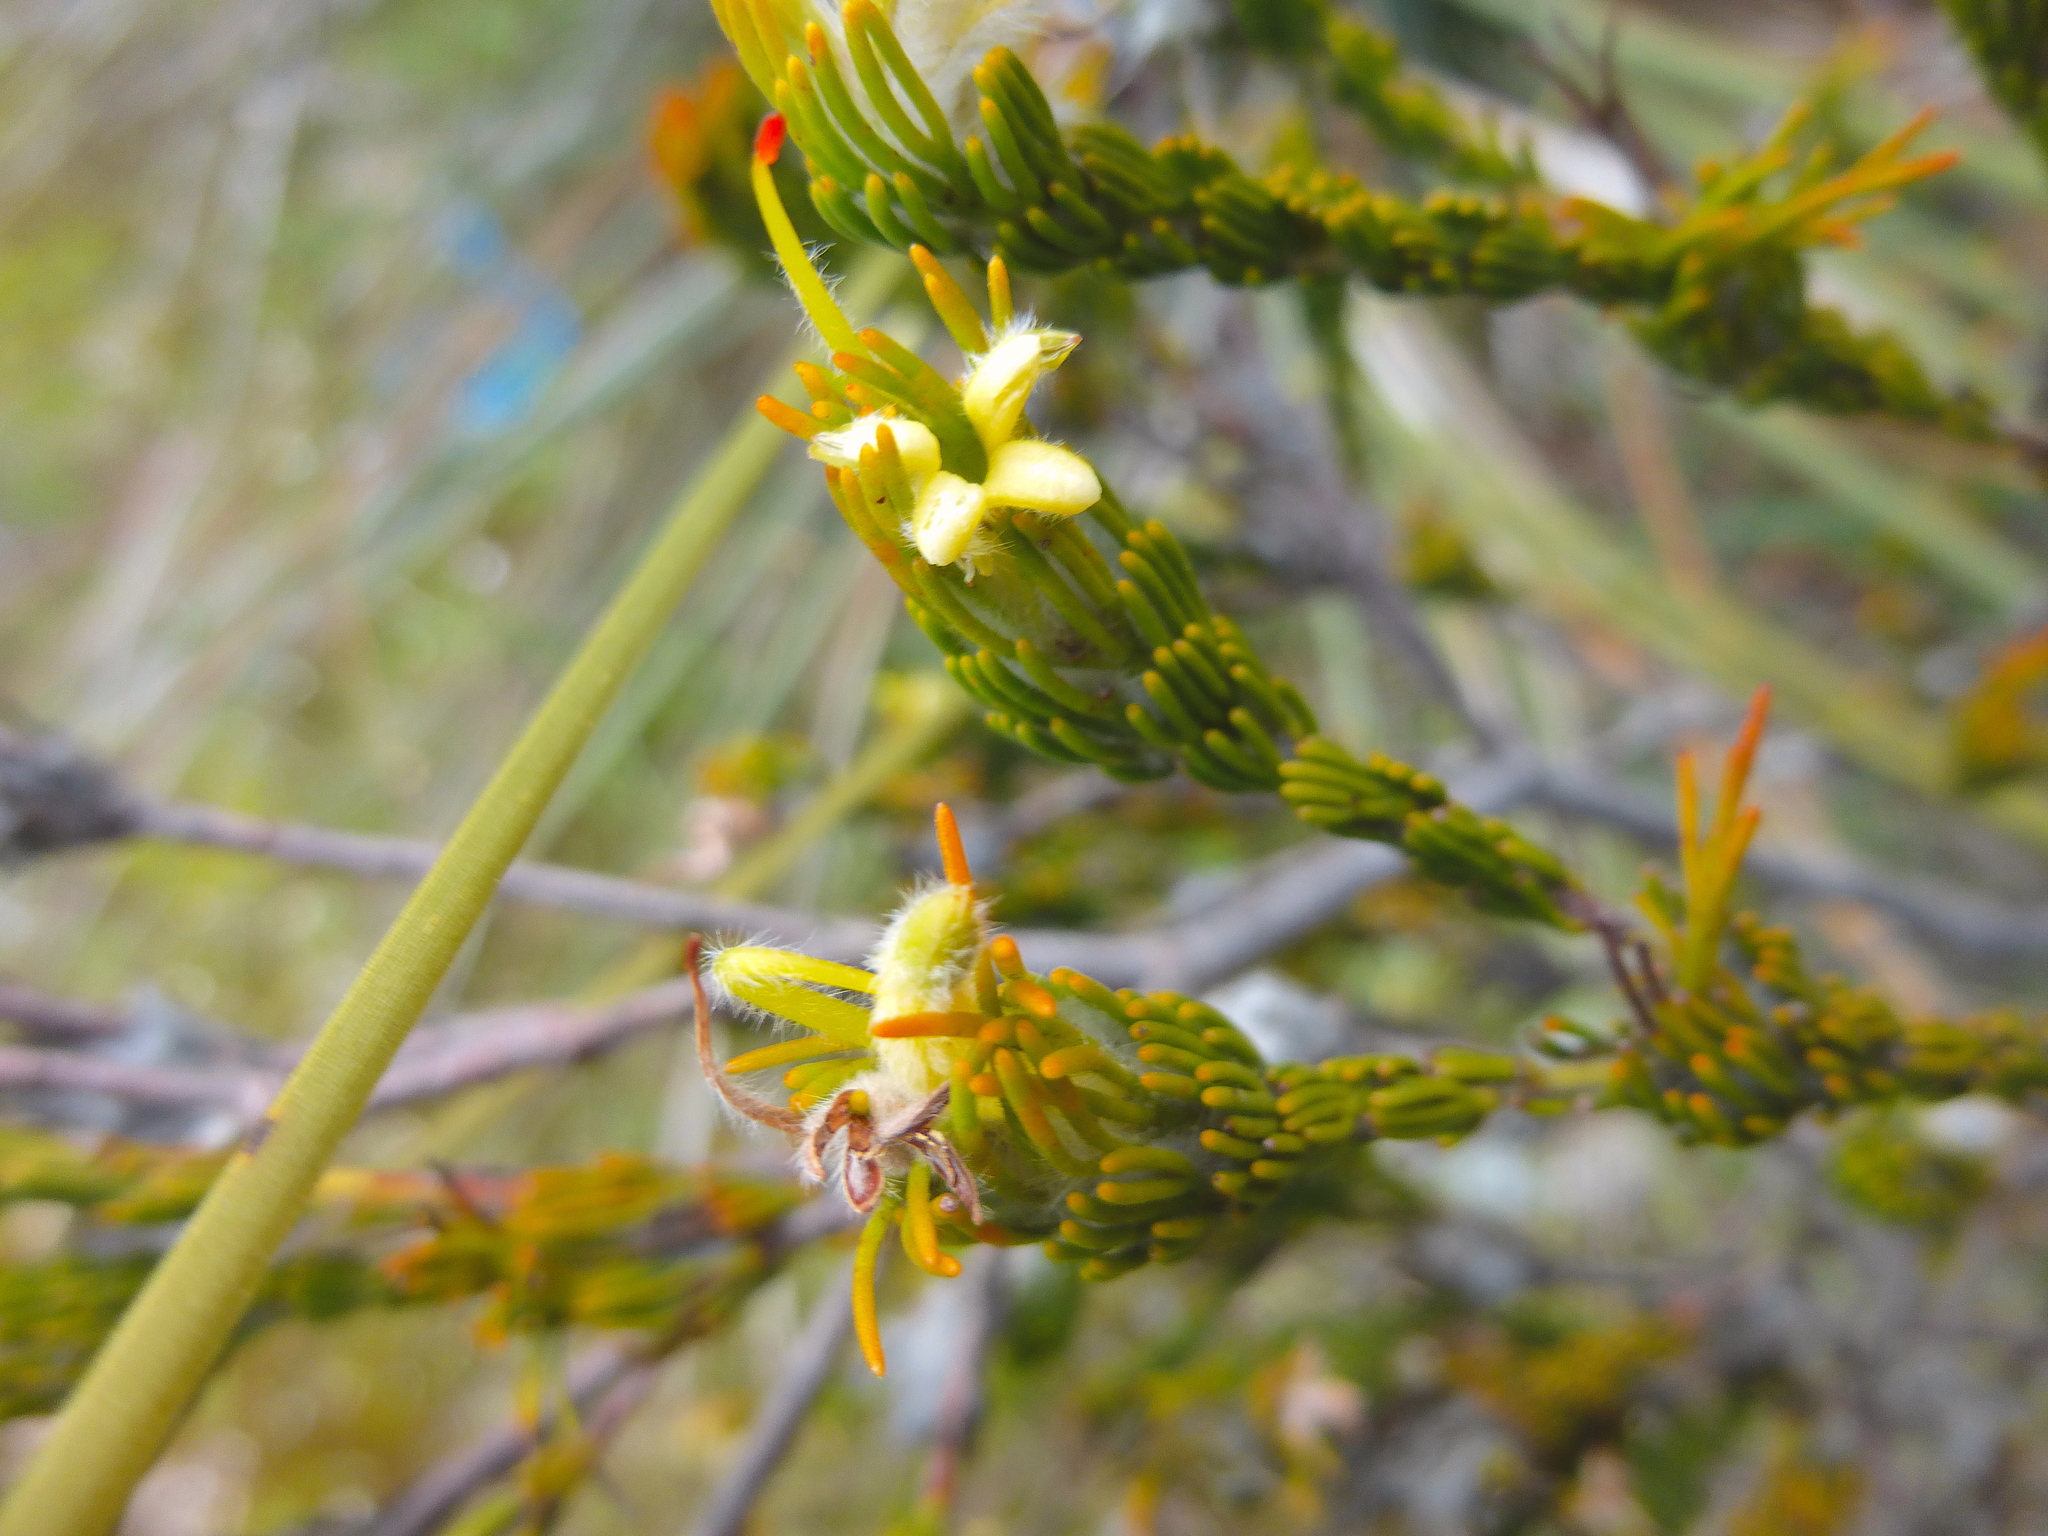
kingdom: Plantae
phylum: Tracheophyta
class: Magnoliopsida
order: Proteales
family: Proteaceae
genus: Adenanthos
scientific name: Adenanthos terminalis
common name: Yellow gland-flower
